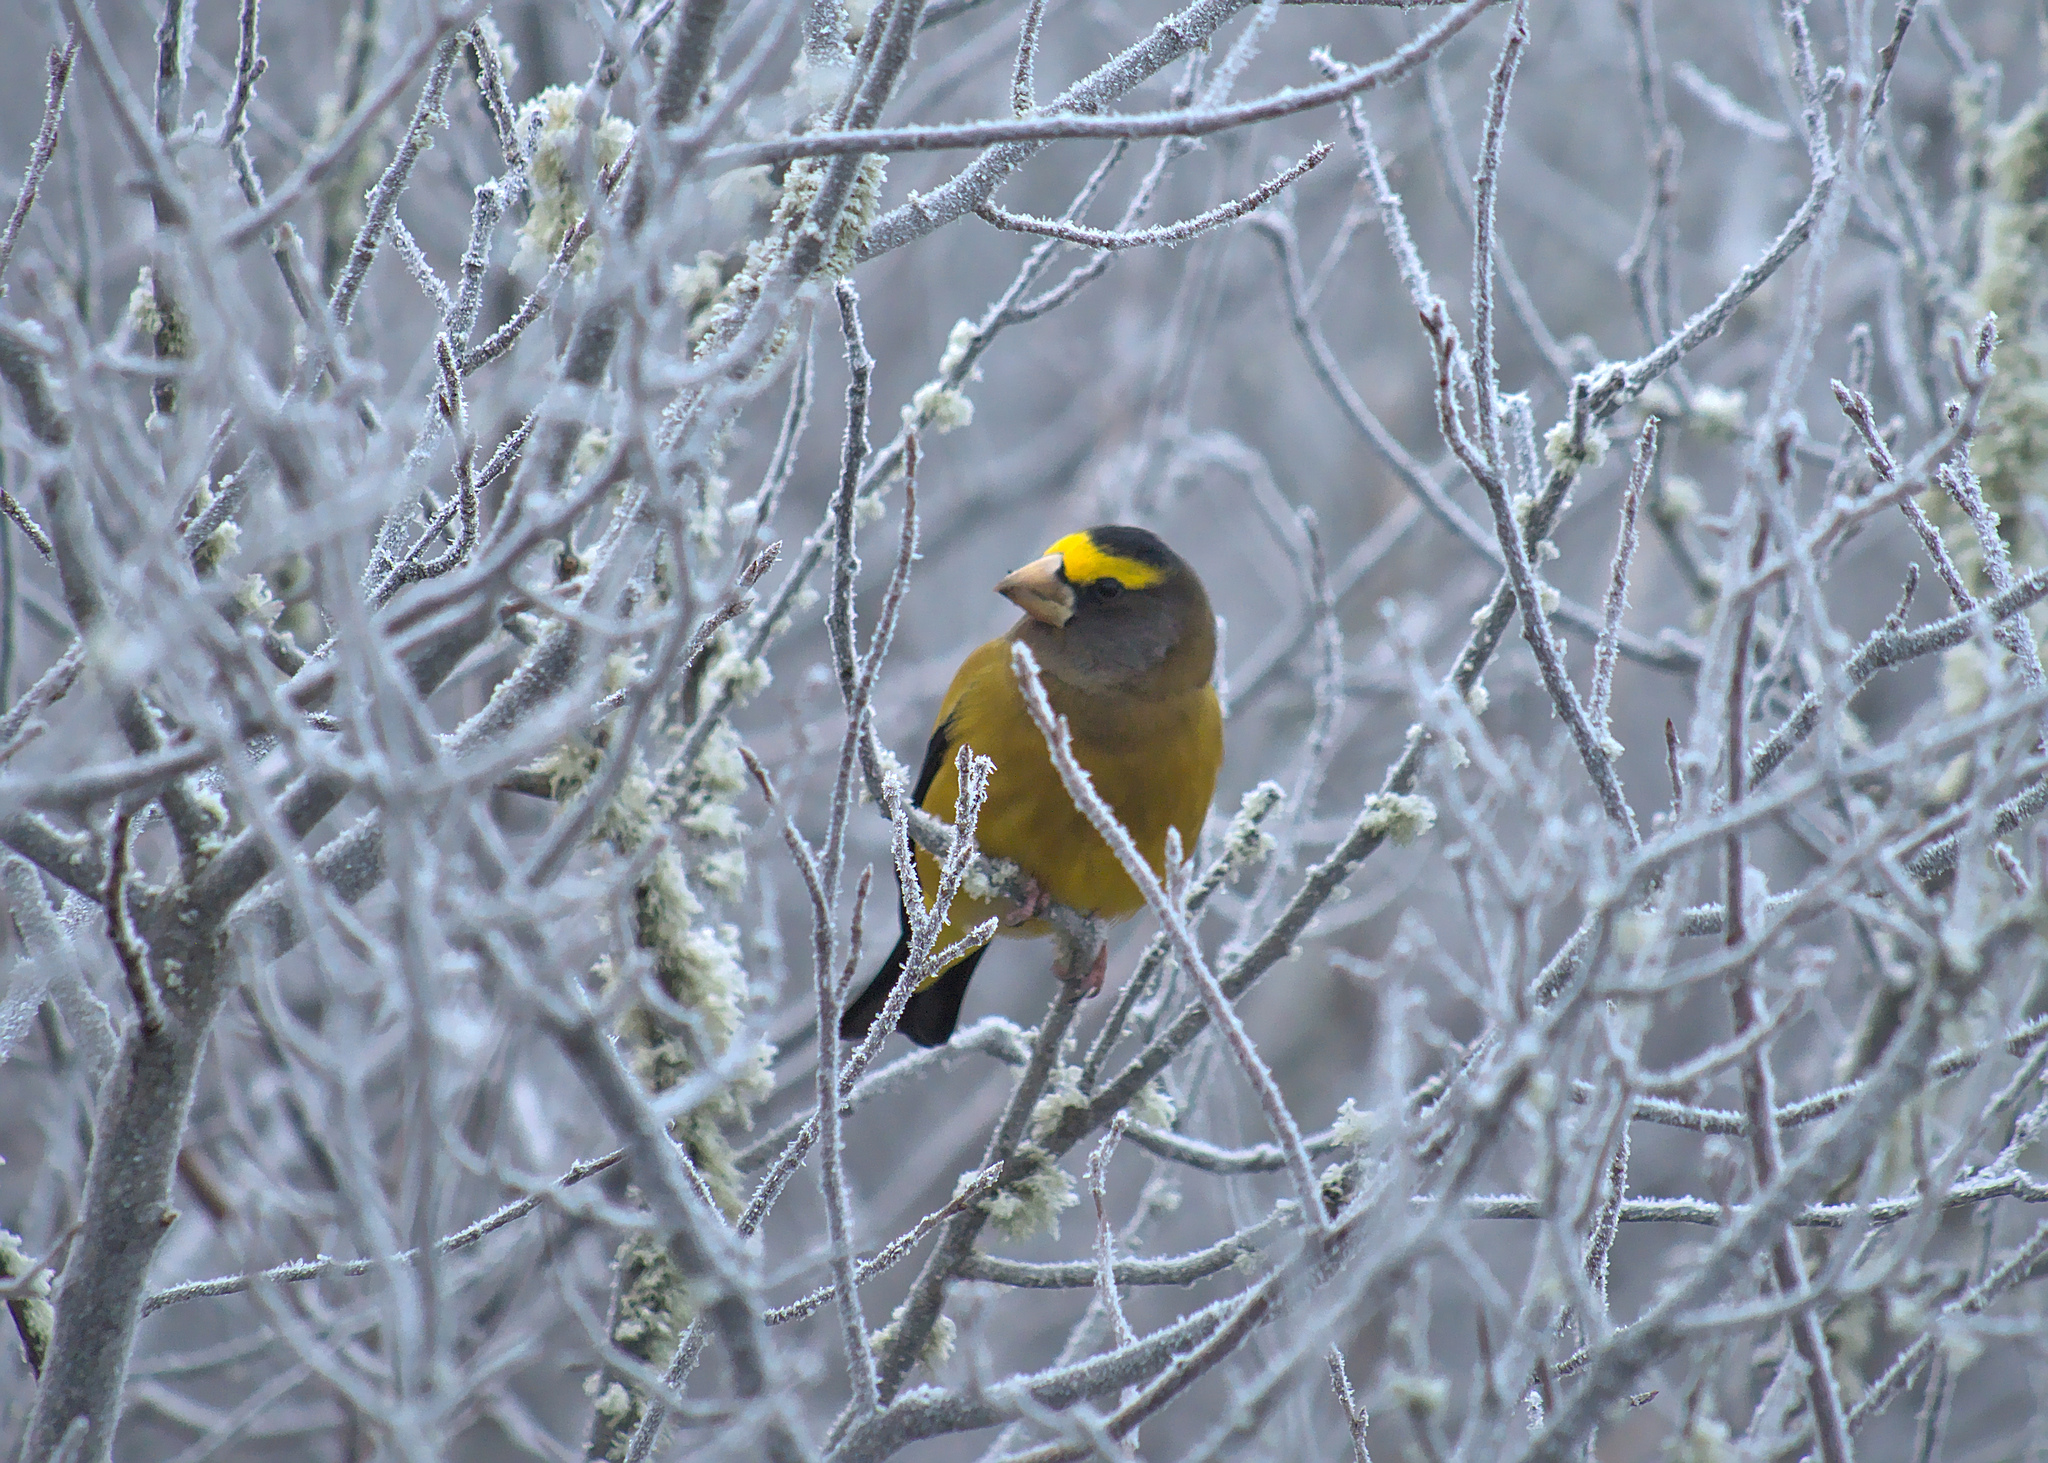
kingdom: Animalia
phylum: Chordata
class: Aves
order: Passeriformes
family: Fringillidae
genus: Hesperiphona
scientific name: Hesperiphona vespertina
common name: Evening grosbeak
